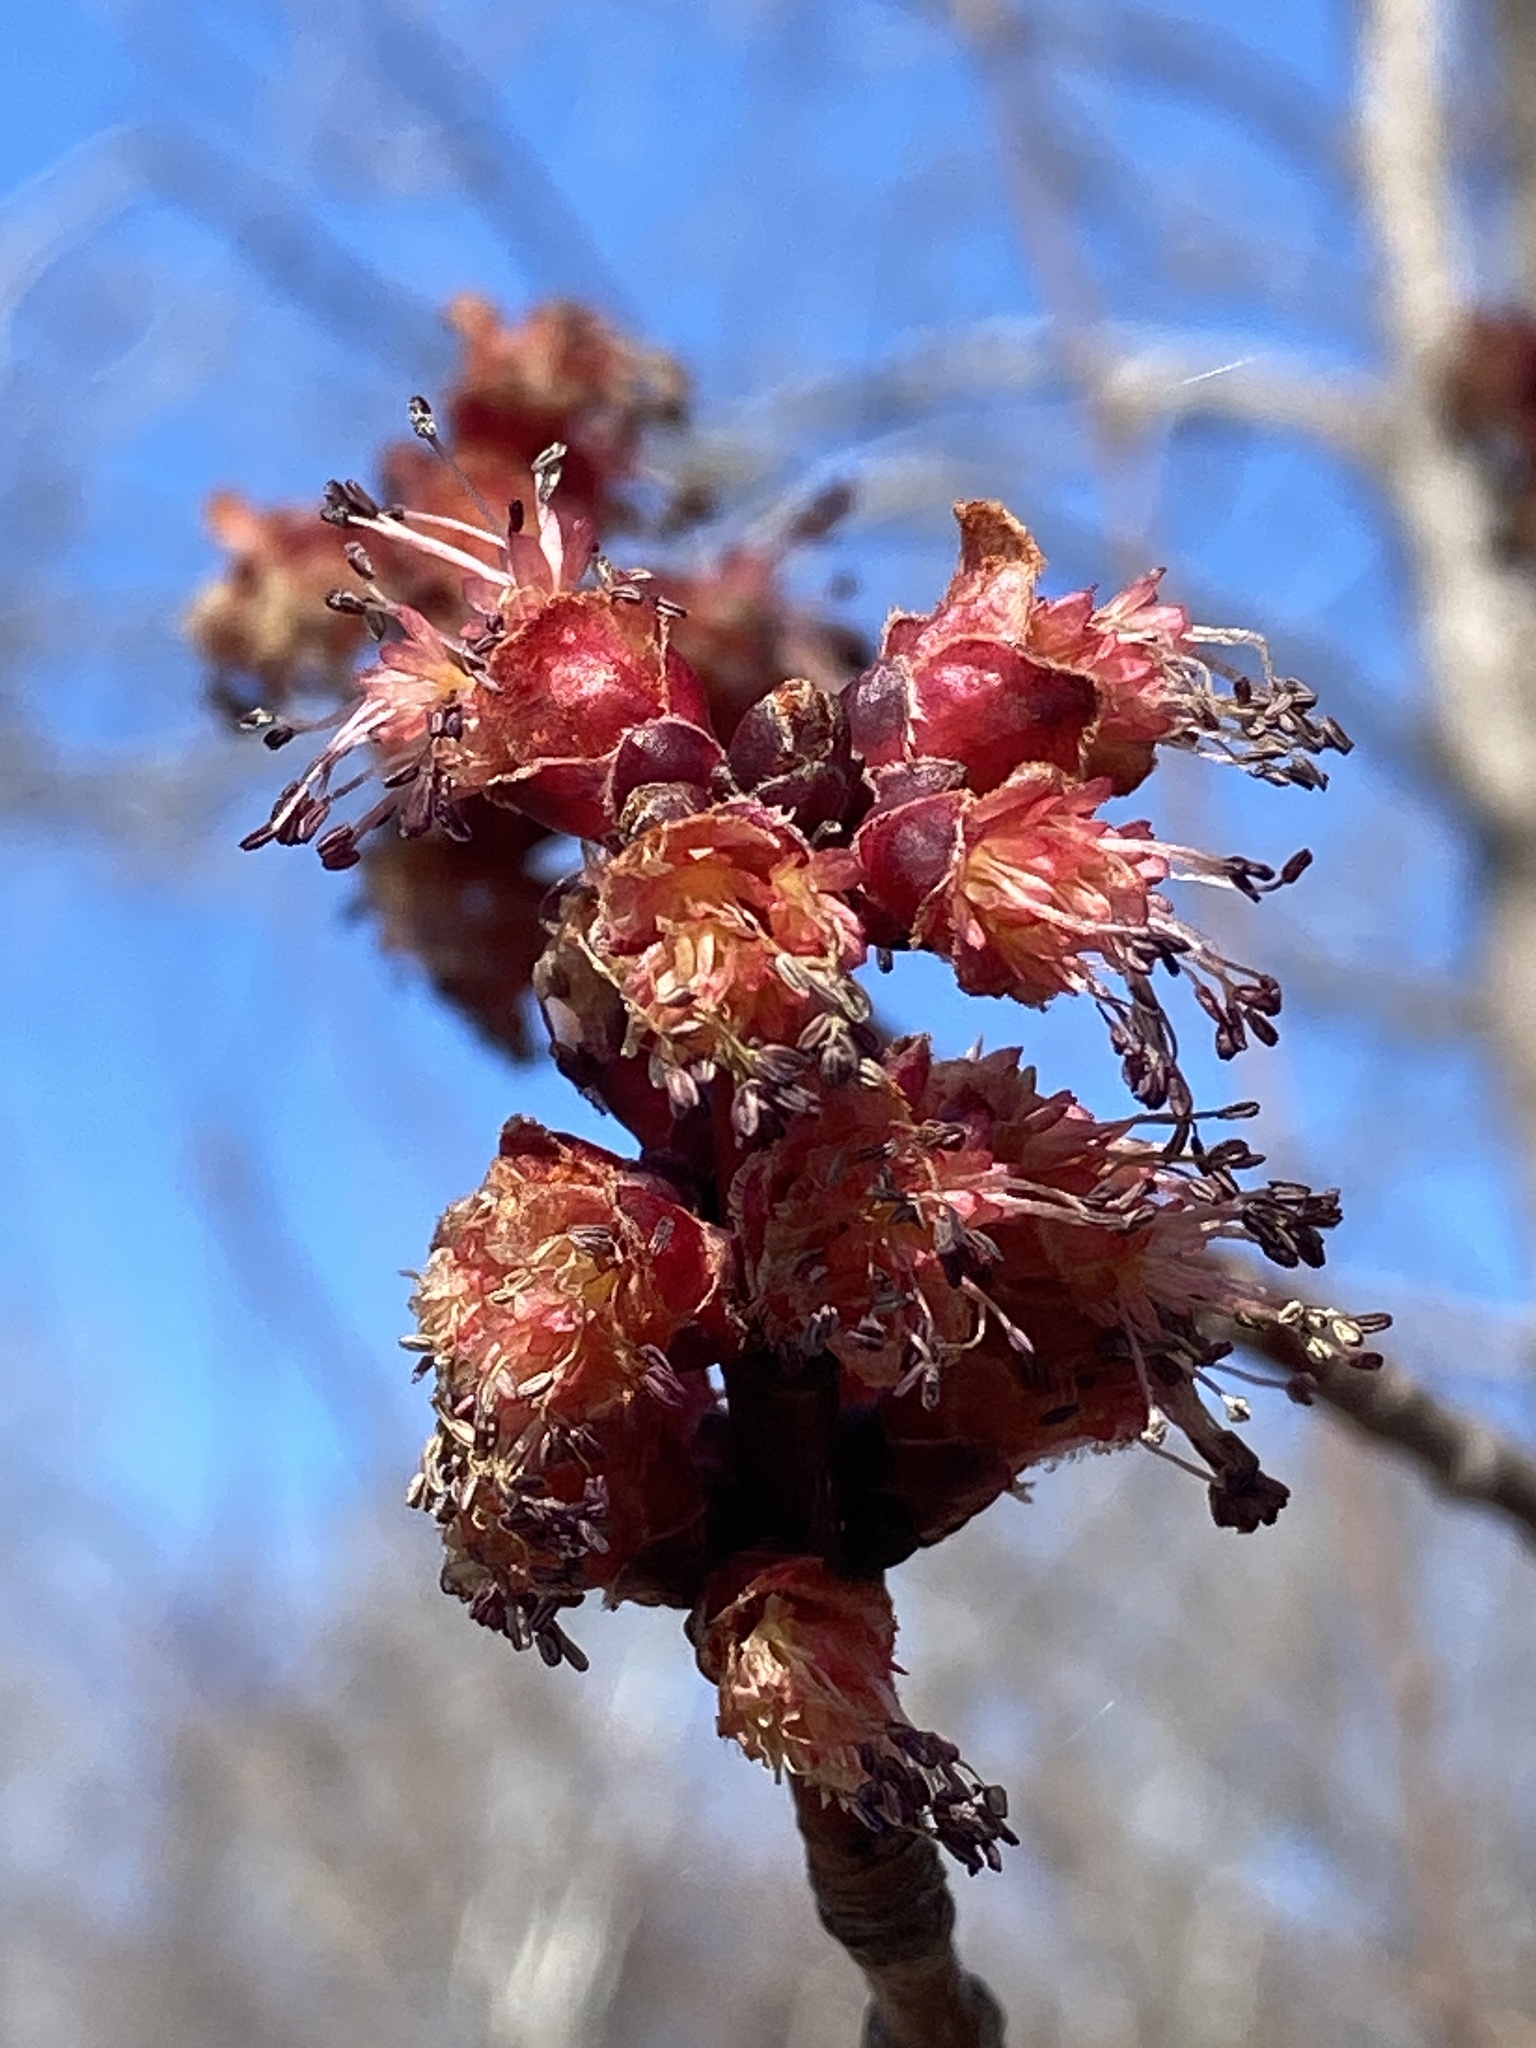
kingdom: Plantae
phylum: Tracheophyta
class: Magnoliopsida
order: Sapindales
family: Sapindaceae
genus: Acer
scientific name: Acer saccharinum
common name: Silver maple
